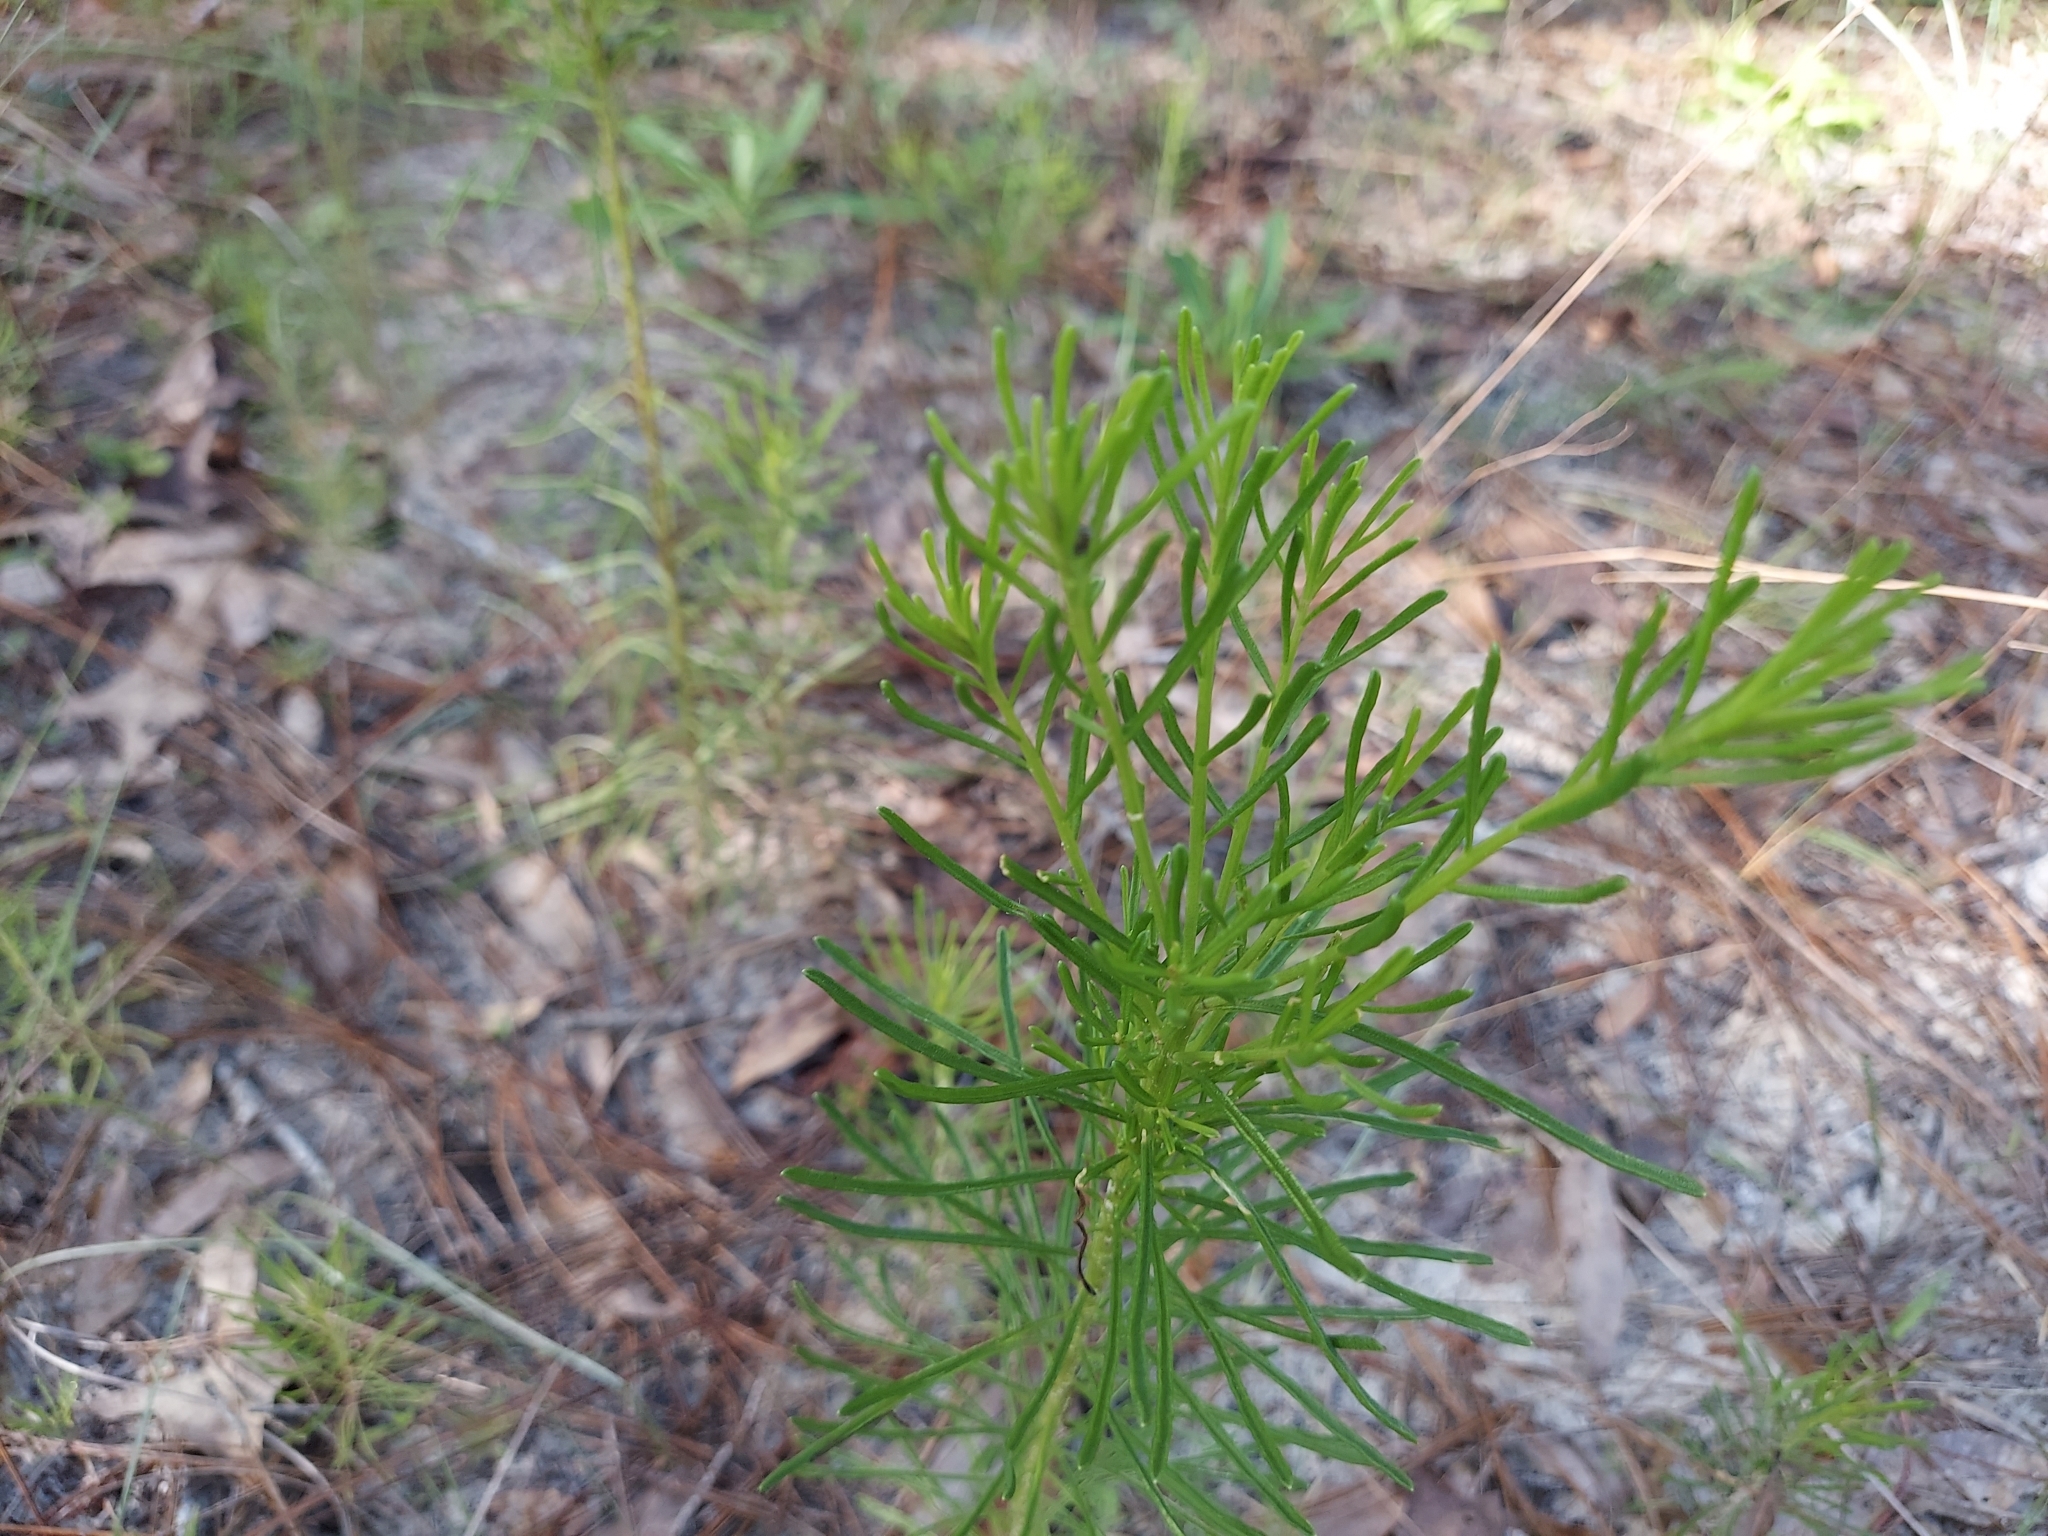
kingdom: Plantae
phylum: Tracheophyta
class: Magnoliopsida
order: Asterales
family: Asteraceae
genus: Balduina
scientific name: Balduina angustifolia
